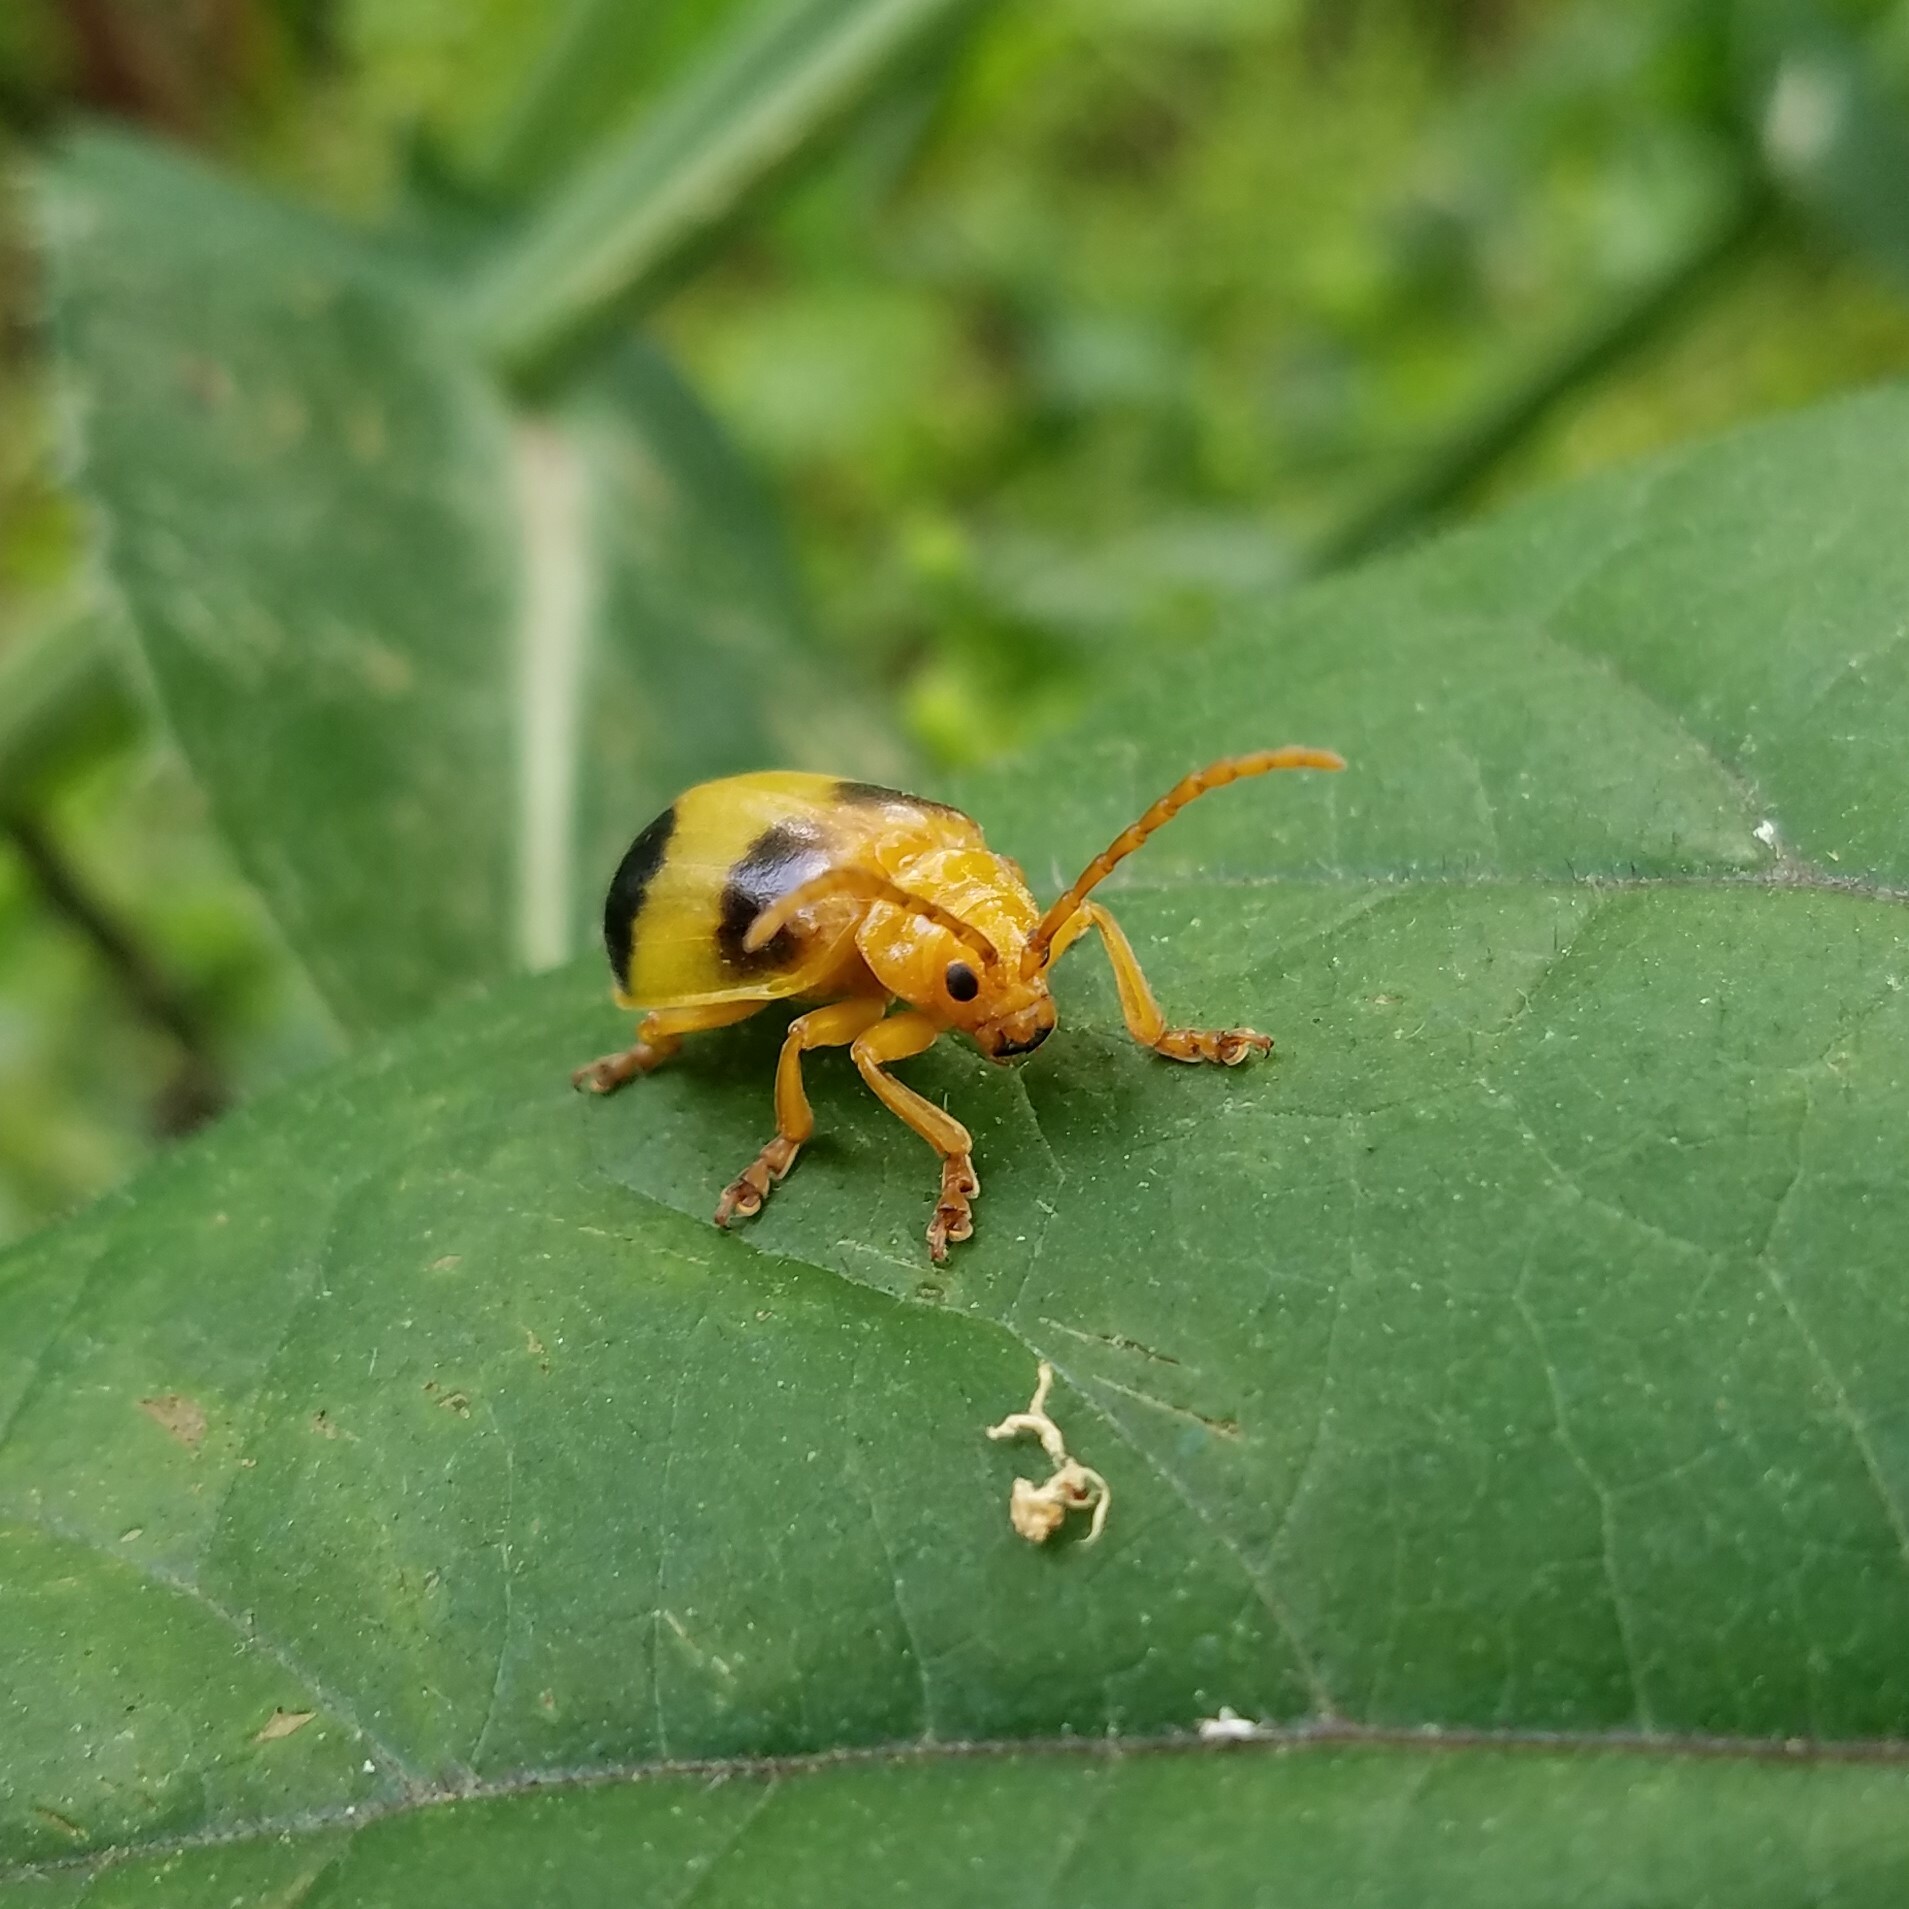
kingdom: Animalia
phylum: Arthropoda
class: Insecta
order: Coleoptera
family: Chrysomelidae
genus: Monocesta
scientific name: Monocesta coryli
